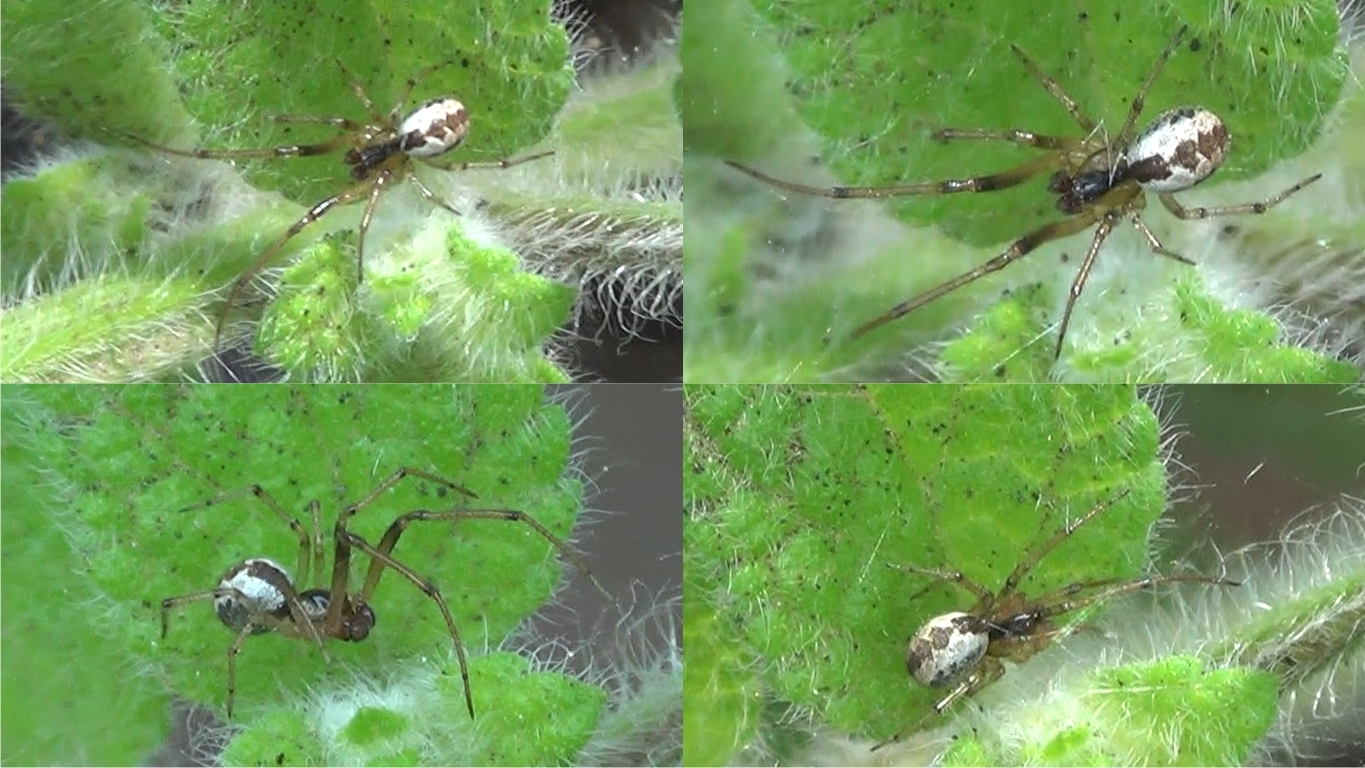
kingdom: Animalia
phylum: Arthropoda
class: Arachnida
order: Araneae
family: Theridiidae
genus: Kochiura
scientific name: Kochiura aulica
